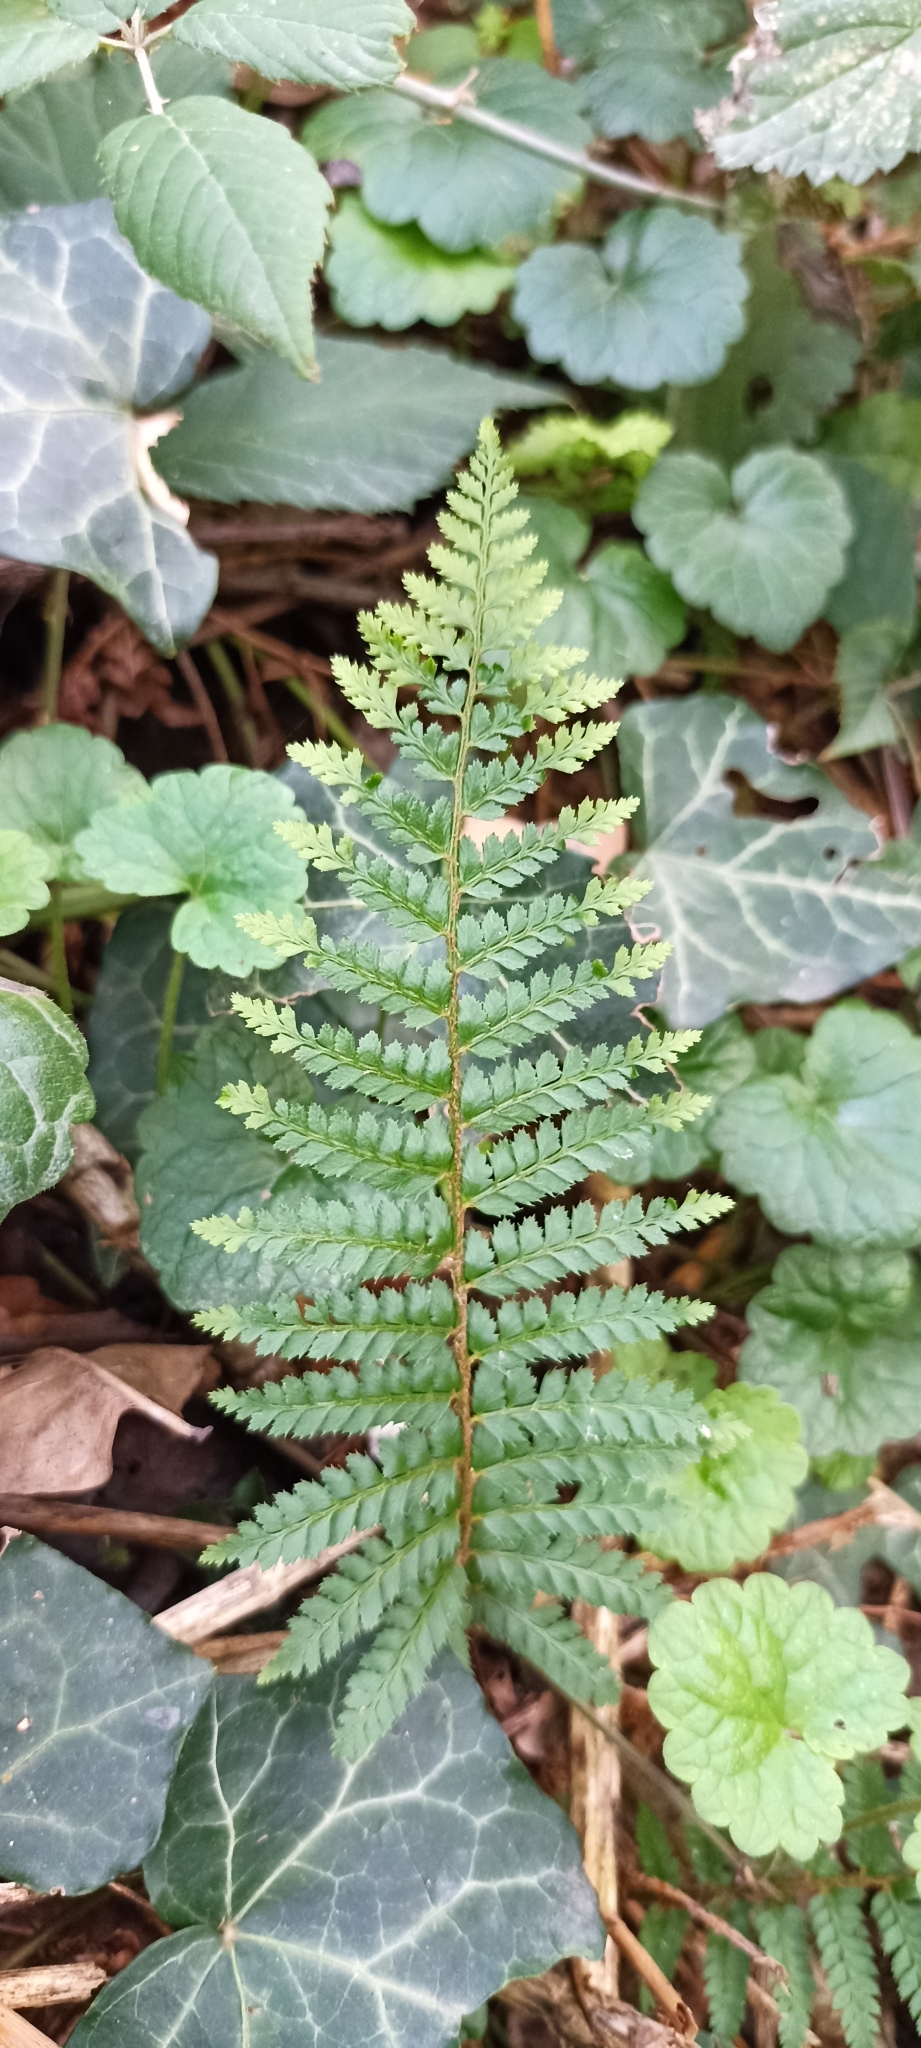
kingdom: Plantae
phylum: Tracheophyta
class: Polypodiopsida
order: Polypodiales
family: Dryopteridaceae
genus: Polystichum
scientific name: Polystichum setiferum
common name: Soft shield-fern
